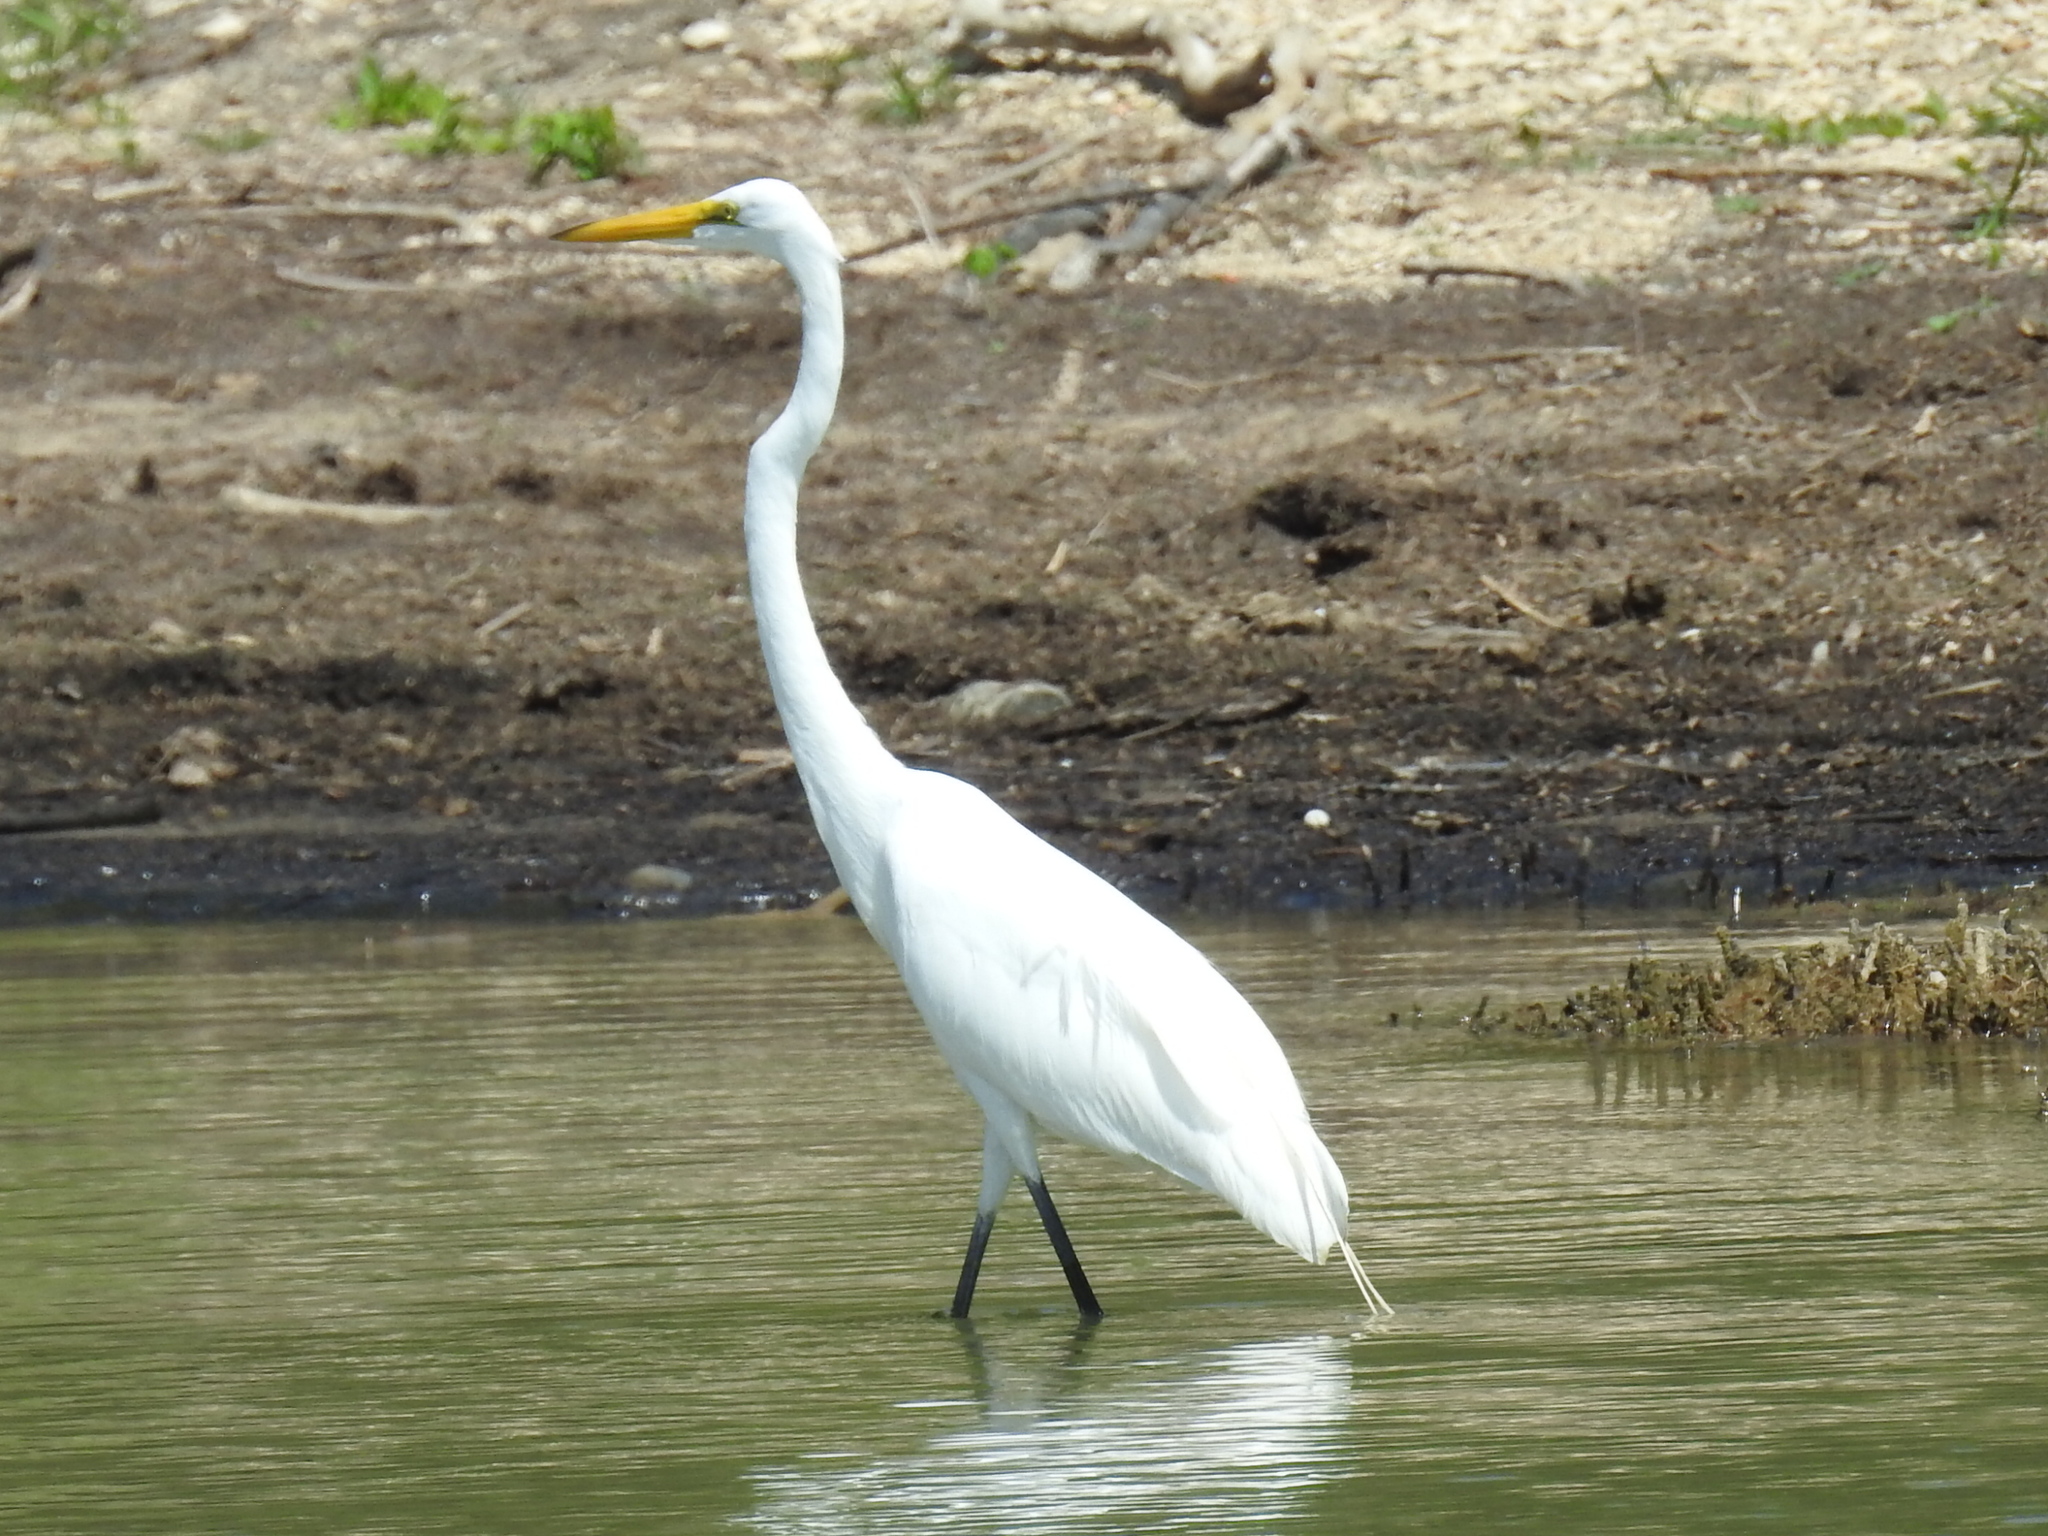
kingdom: Animalia
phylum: Chordata
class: Aves
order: Pelecaniformes
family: Ardeidae
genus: Ardea
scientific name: Ardea alba
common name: Great egret
